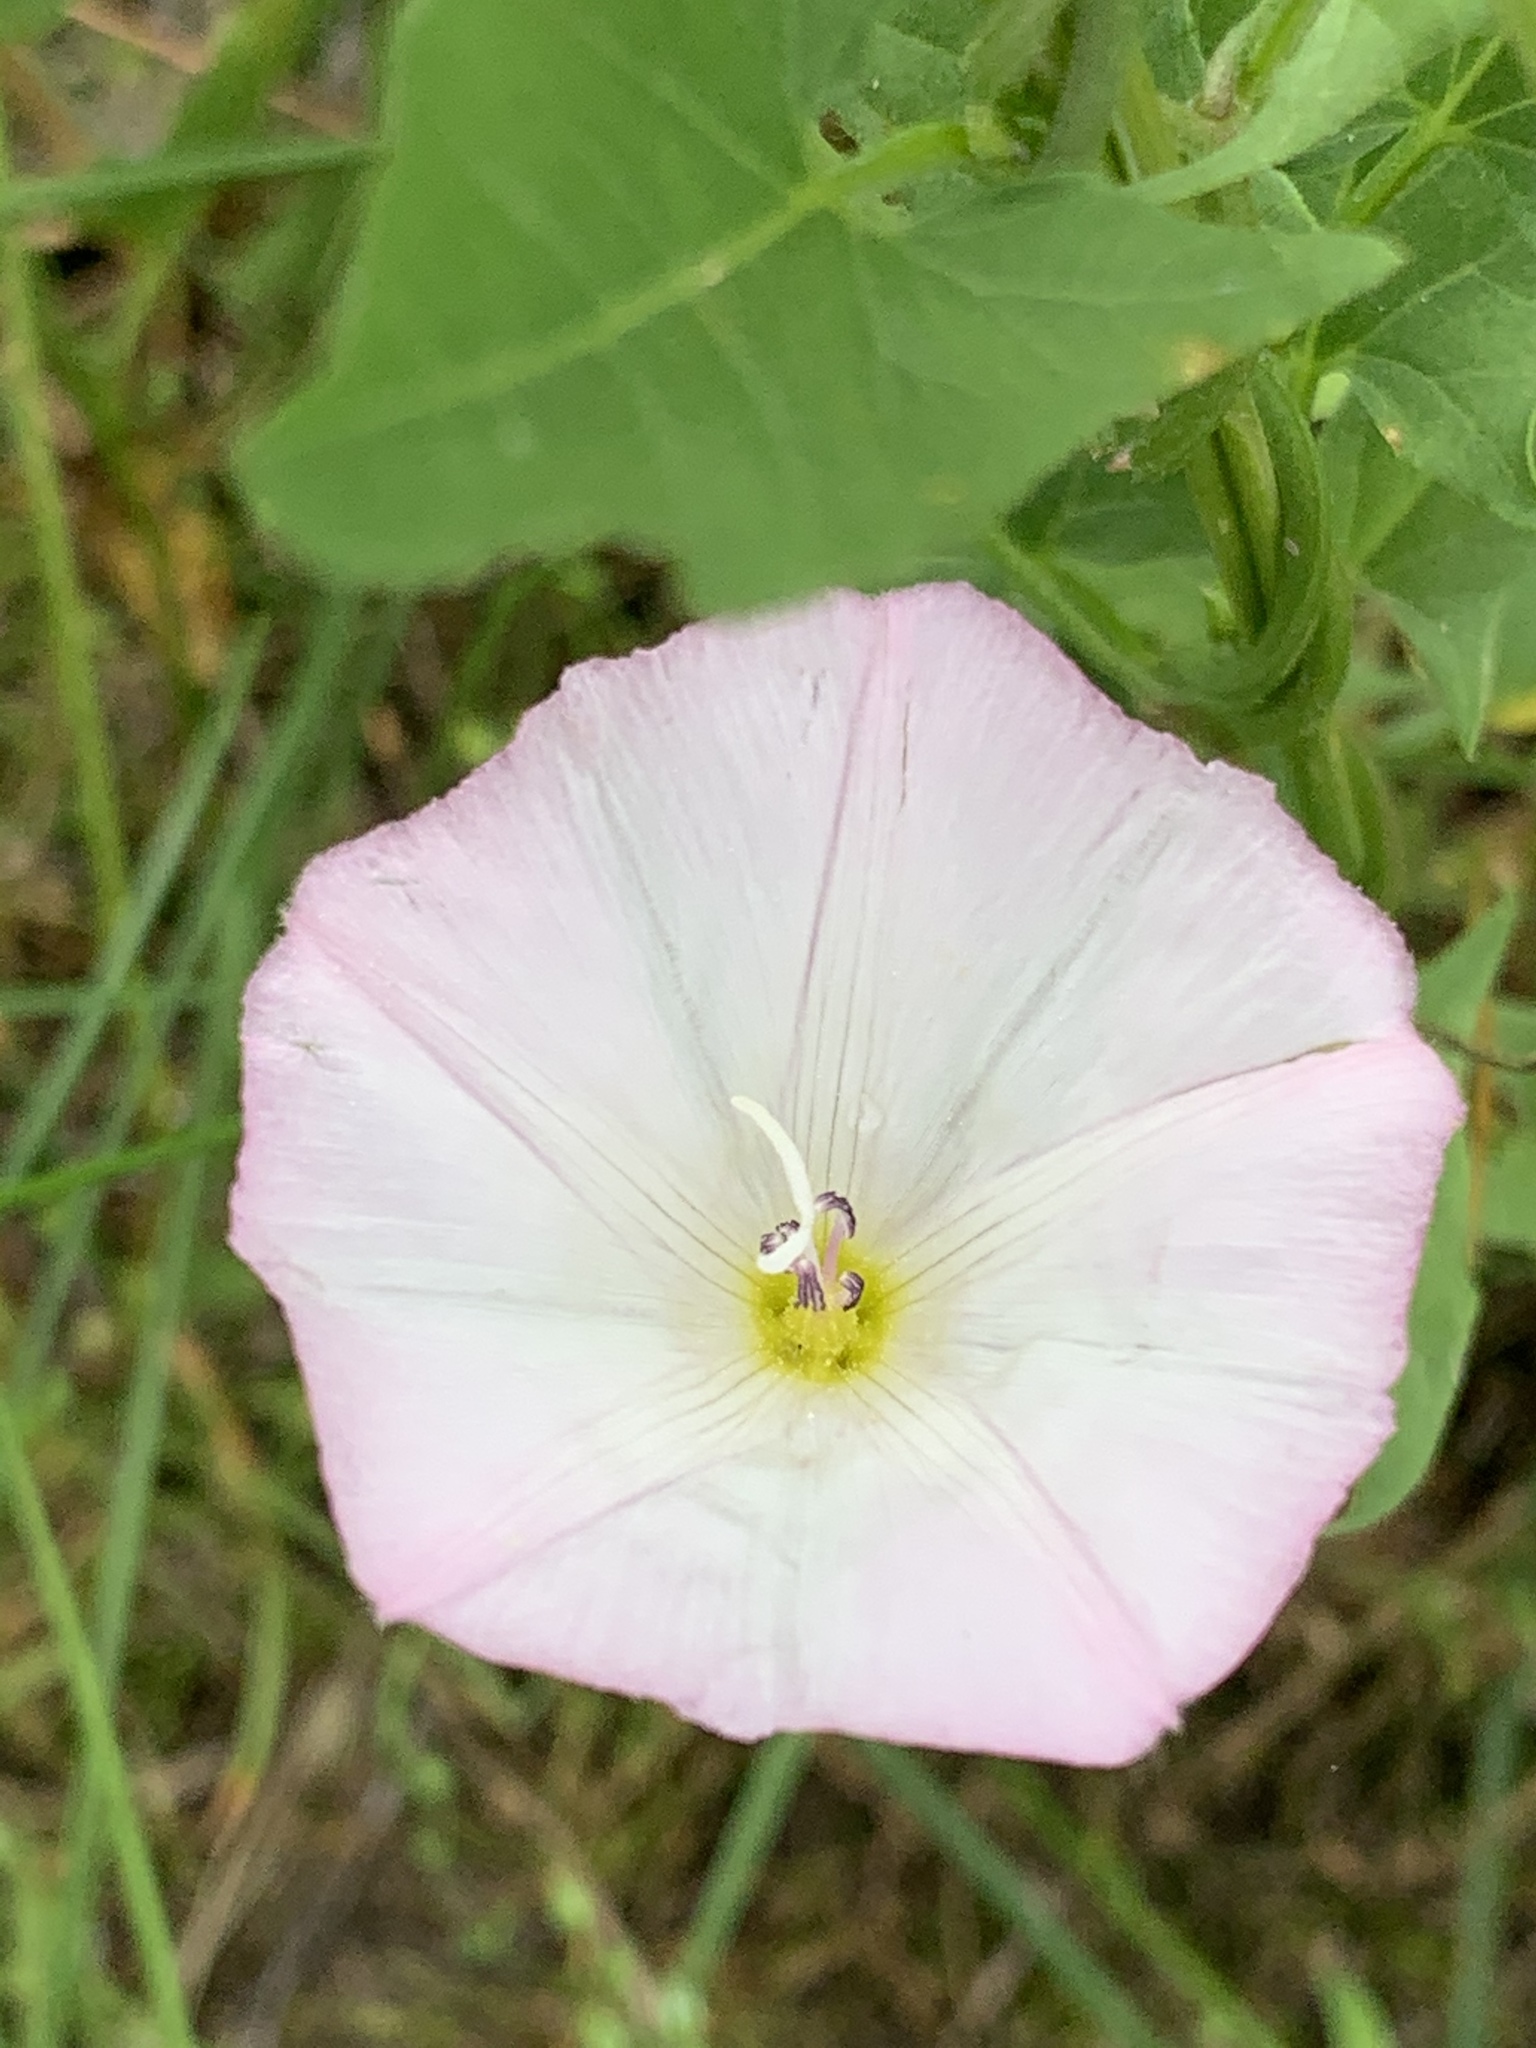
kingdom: Plantae
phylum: Tracheophyta
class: Magnoliopsida
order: Solanales
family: Convolvulaceae
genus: Convolvulus
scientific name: Convolvulus arvensis
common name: Field bindweed
